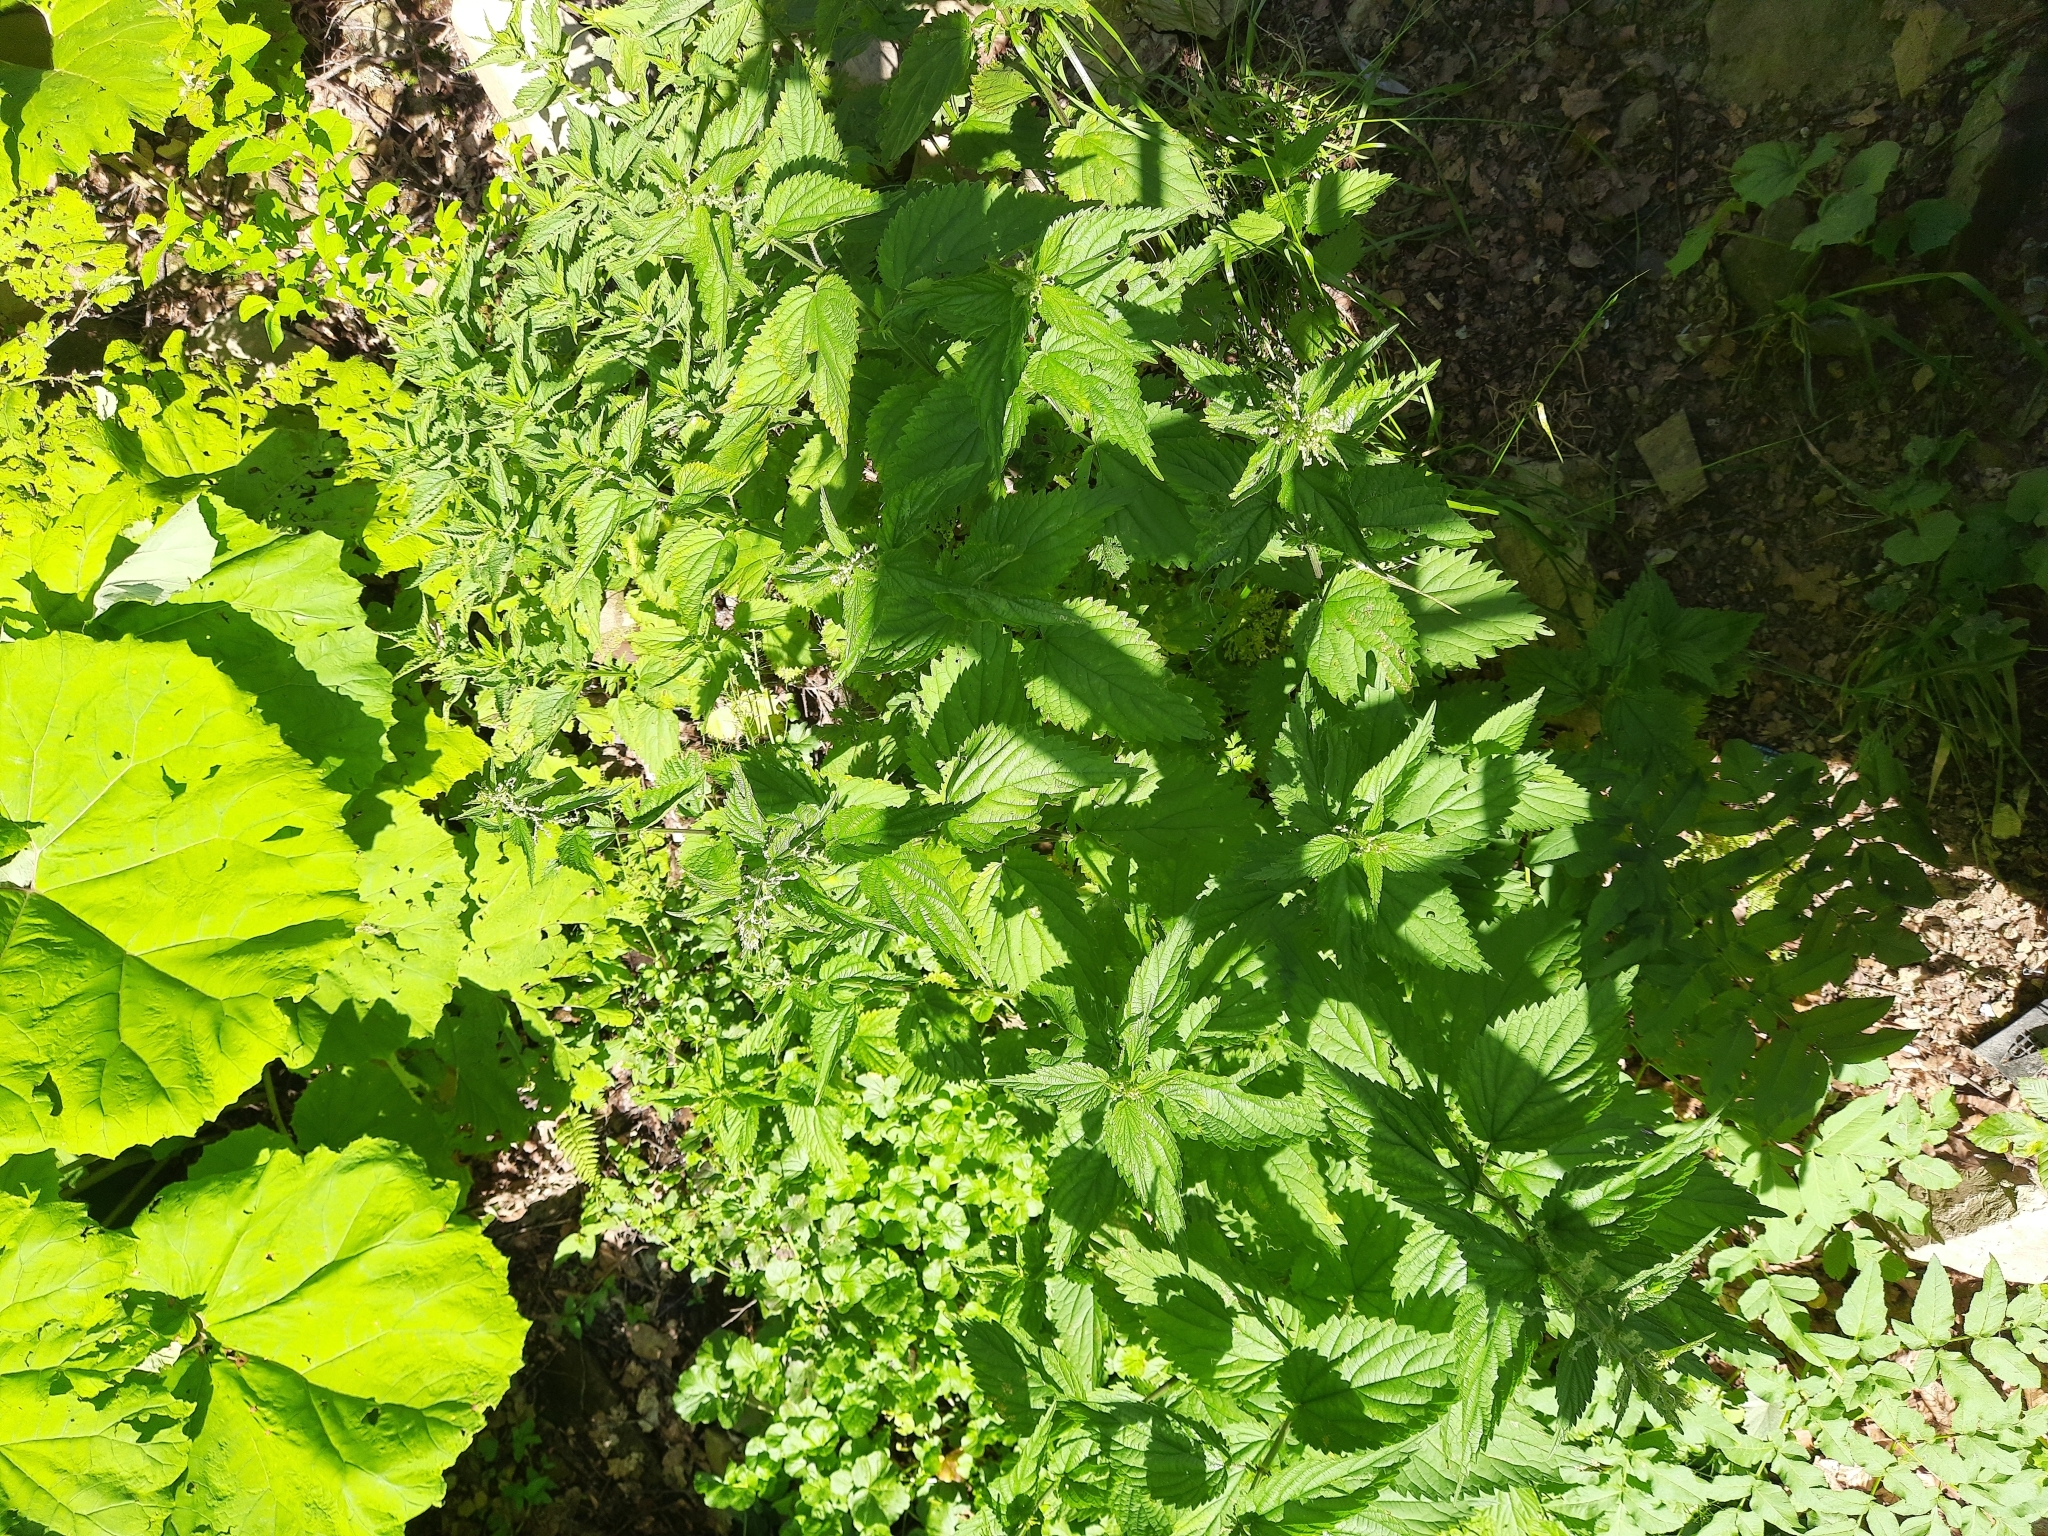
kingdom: Plantae
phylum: Tracheophyta
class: Magnoliopsida
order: Rosales
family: Urticaceae
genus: Urtica
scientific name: Urtica dioica
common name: Common nettle
